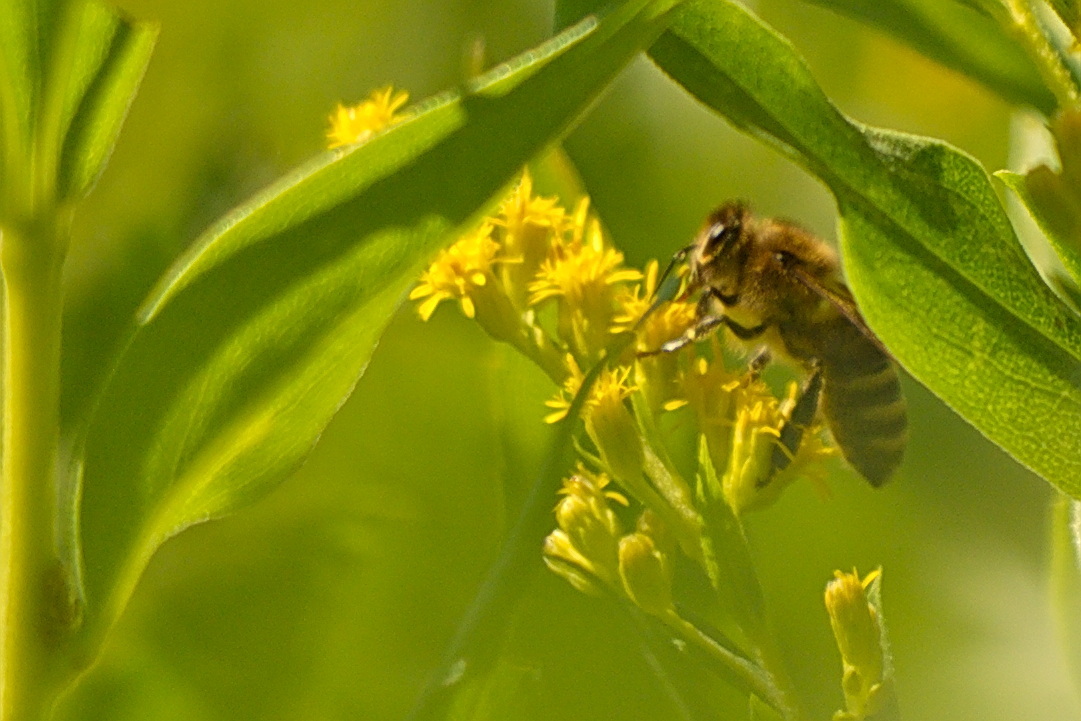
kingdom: Animalia
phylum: Arthropoda
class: Insecta
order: Hymenoptera
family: Apidae
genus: Apis
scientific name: Apis mellifera
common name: Honey bee
